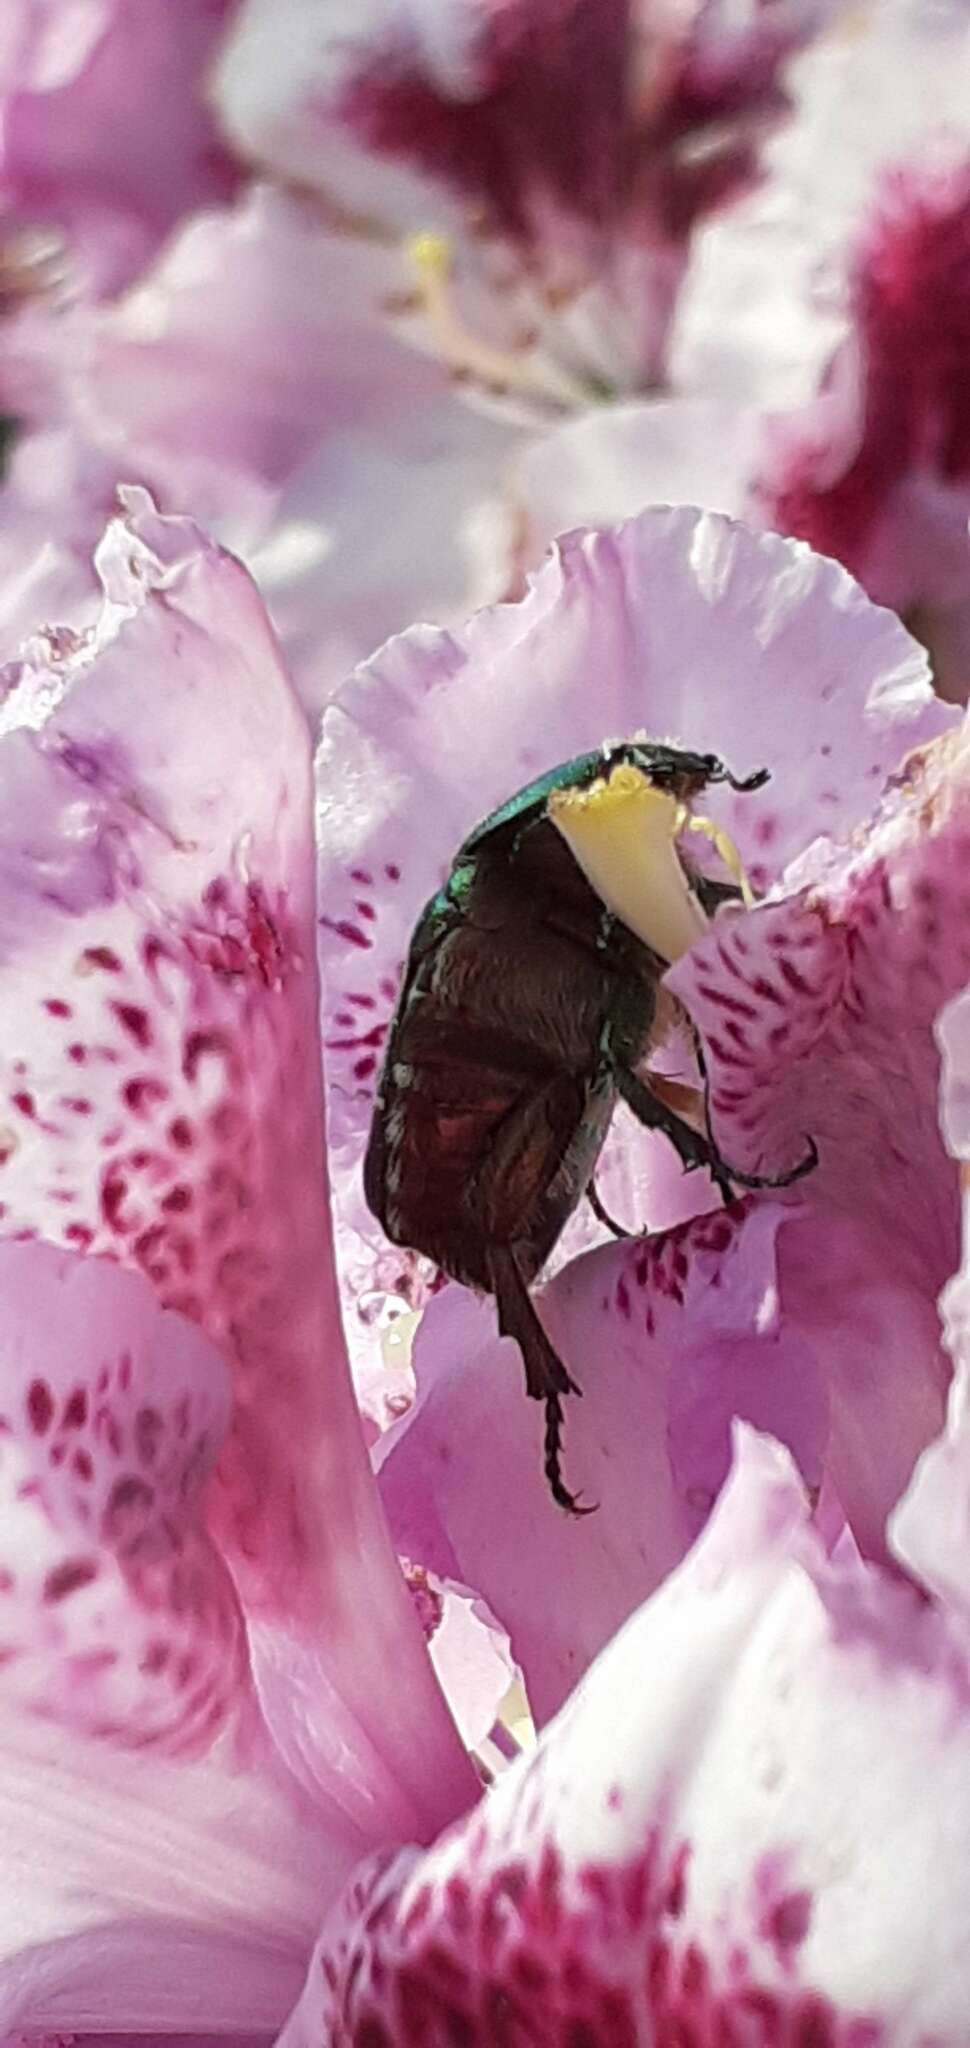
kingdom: Animalia
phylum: Arthropoda
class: Insecta
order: Coleoptera
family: Scarabaeidae
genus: Cetonia
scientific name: Cetonia aurata
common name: Rose chafer
